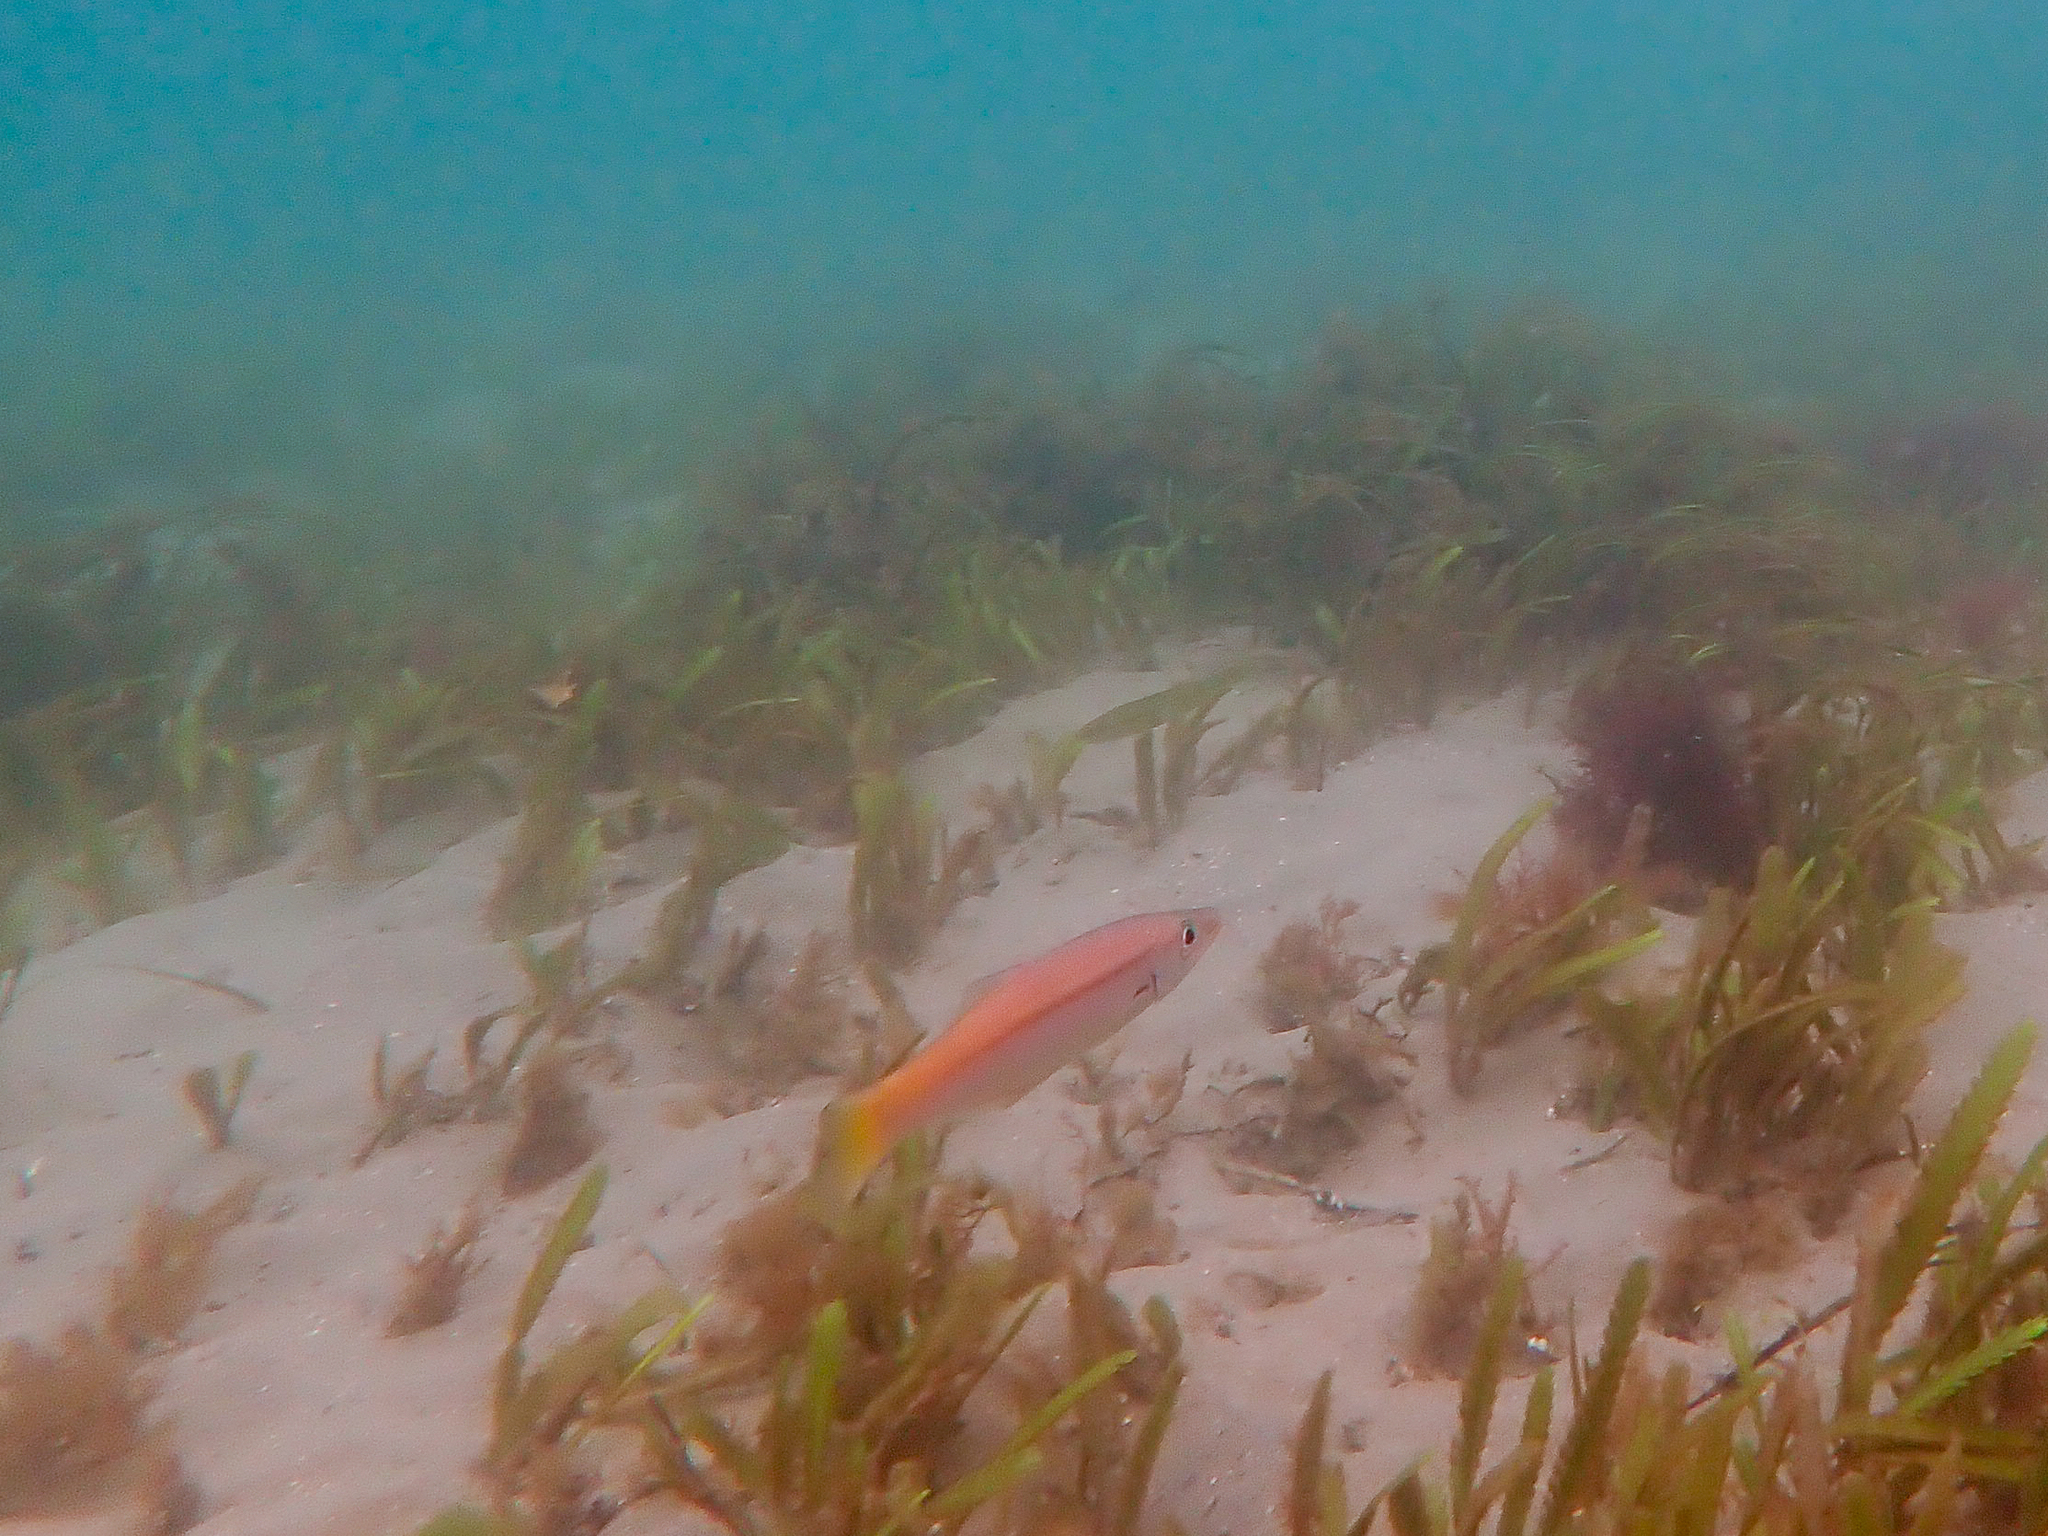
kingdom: Animalia
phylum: Chordata
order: Perciformes
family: Dinolestidae
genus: Dinolestes
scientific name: Dinolestes lewini
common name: Jack pike
